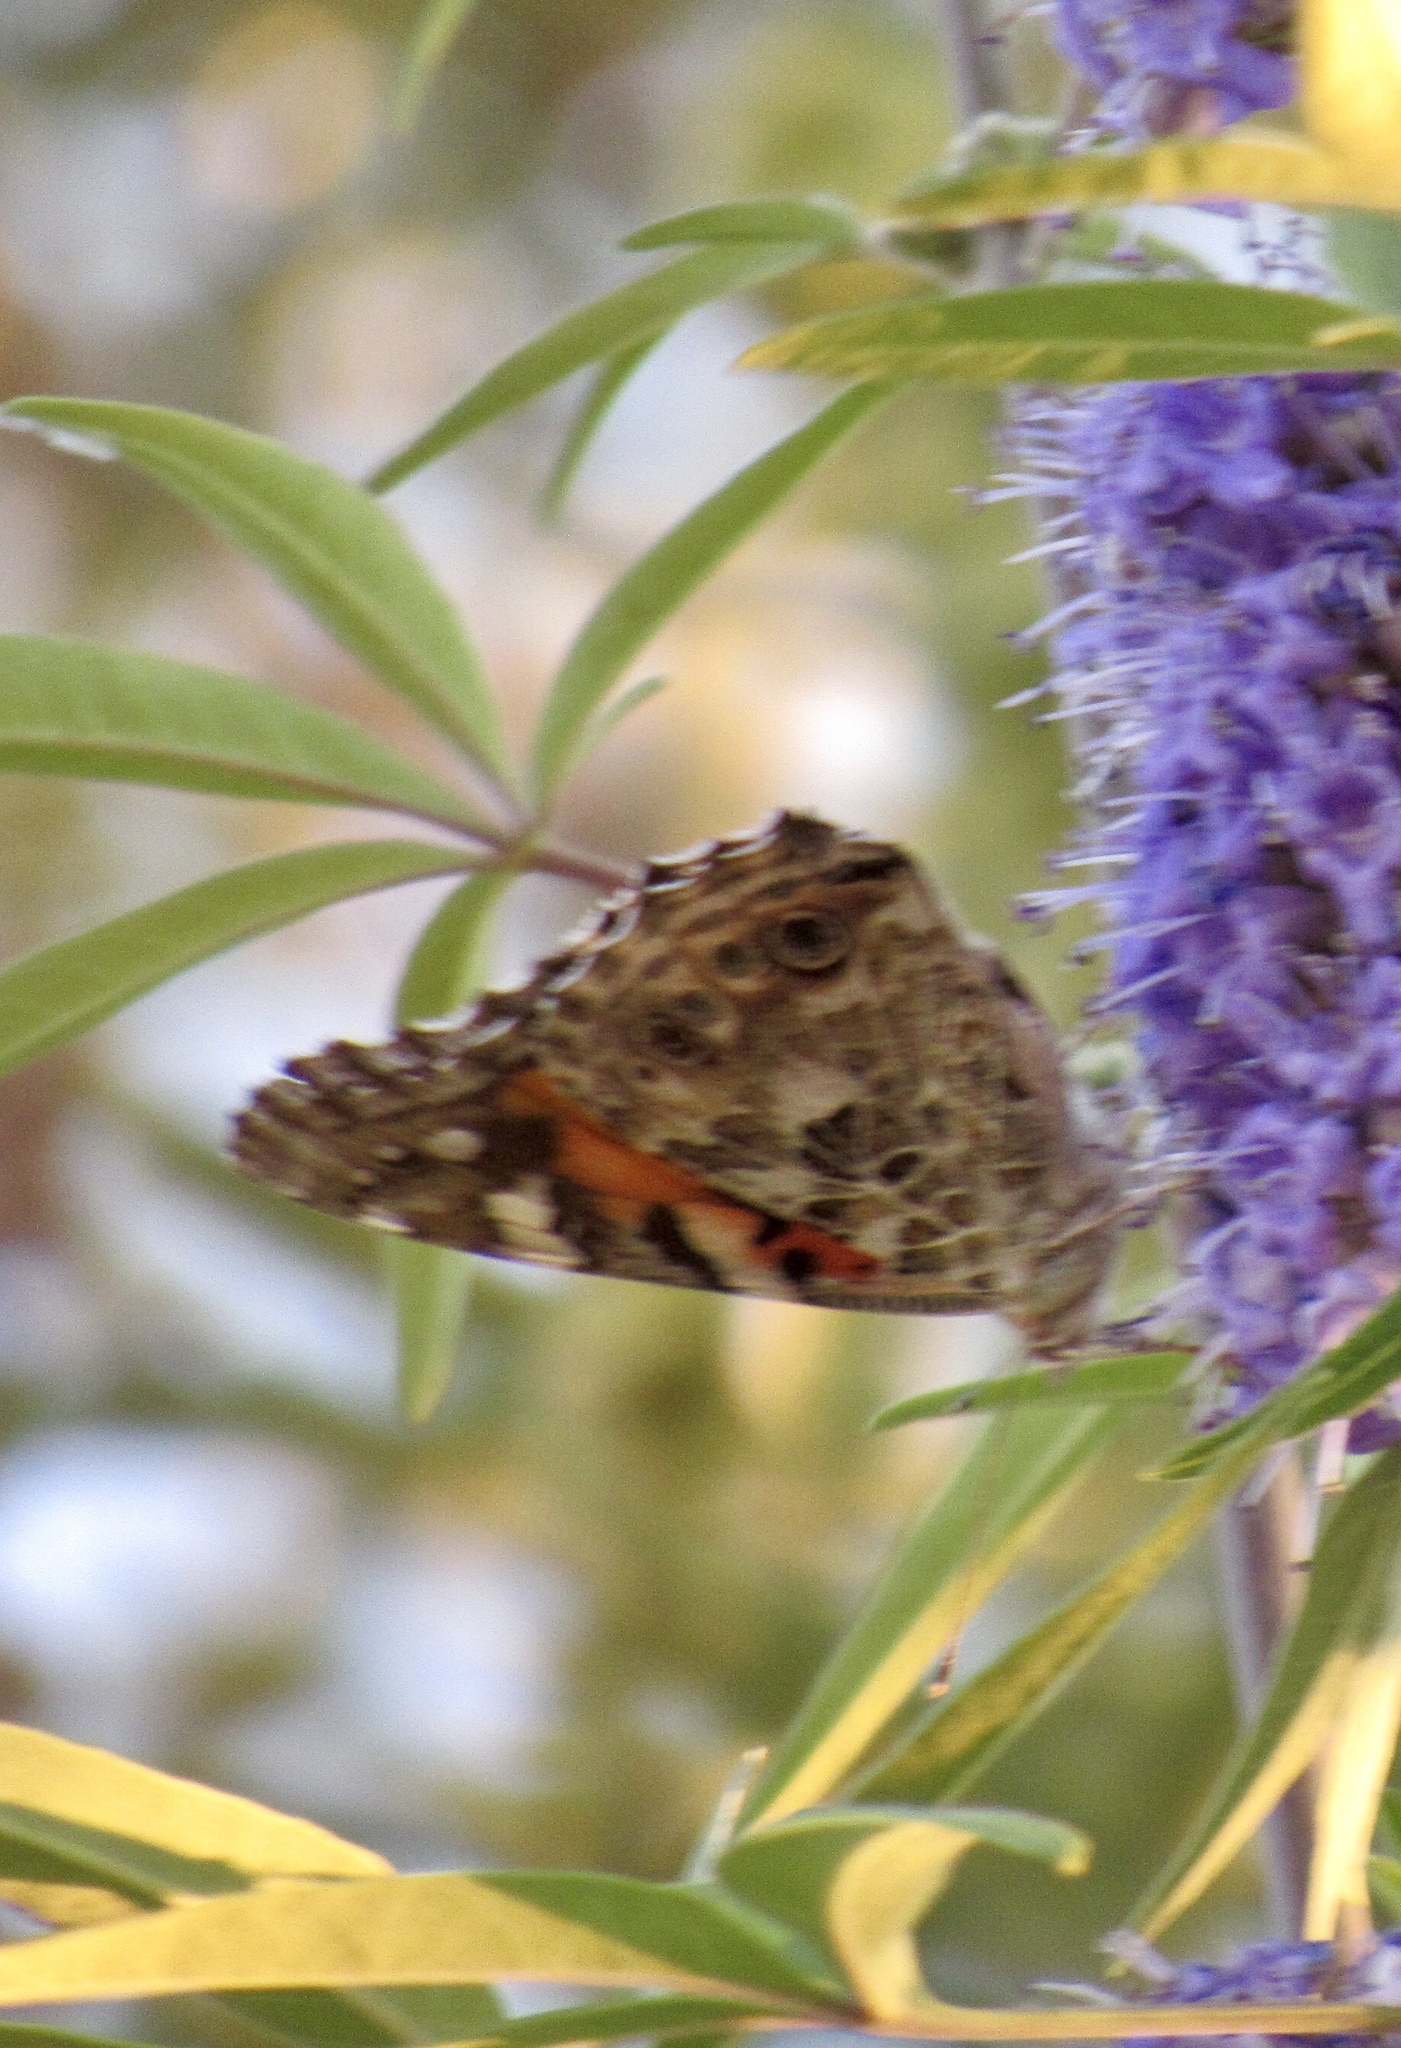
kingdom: Animalia
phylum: Arthropoda
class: Insecta
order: Lepidoptera
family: Nymphalidae
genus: Vanessa
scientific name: Vanessa cardui
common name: Painted lady
